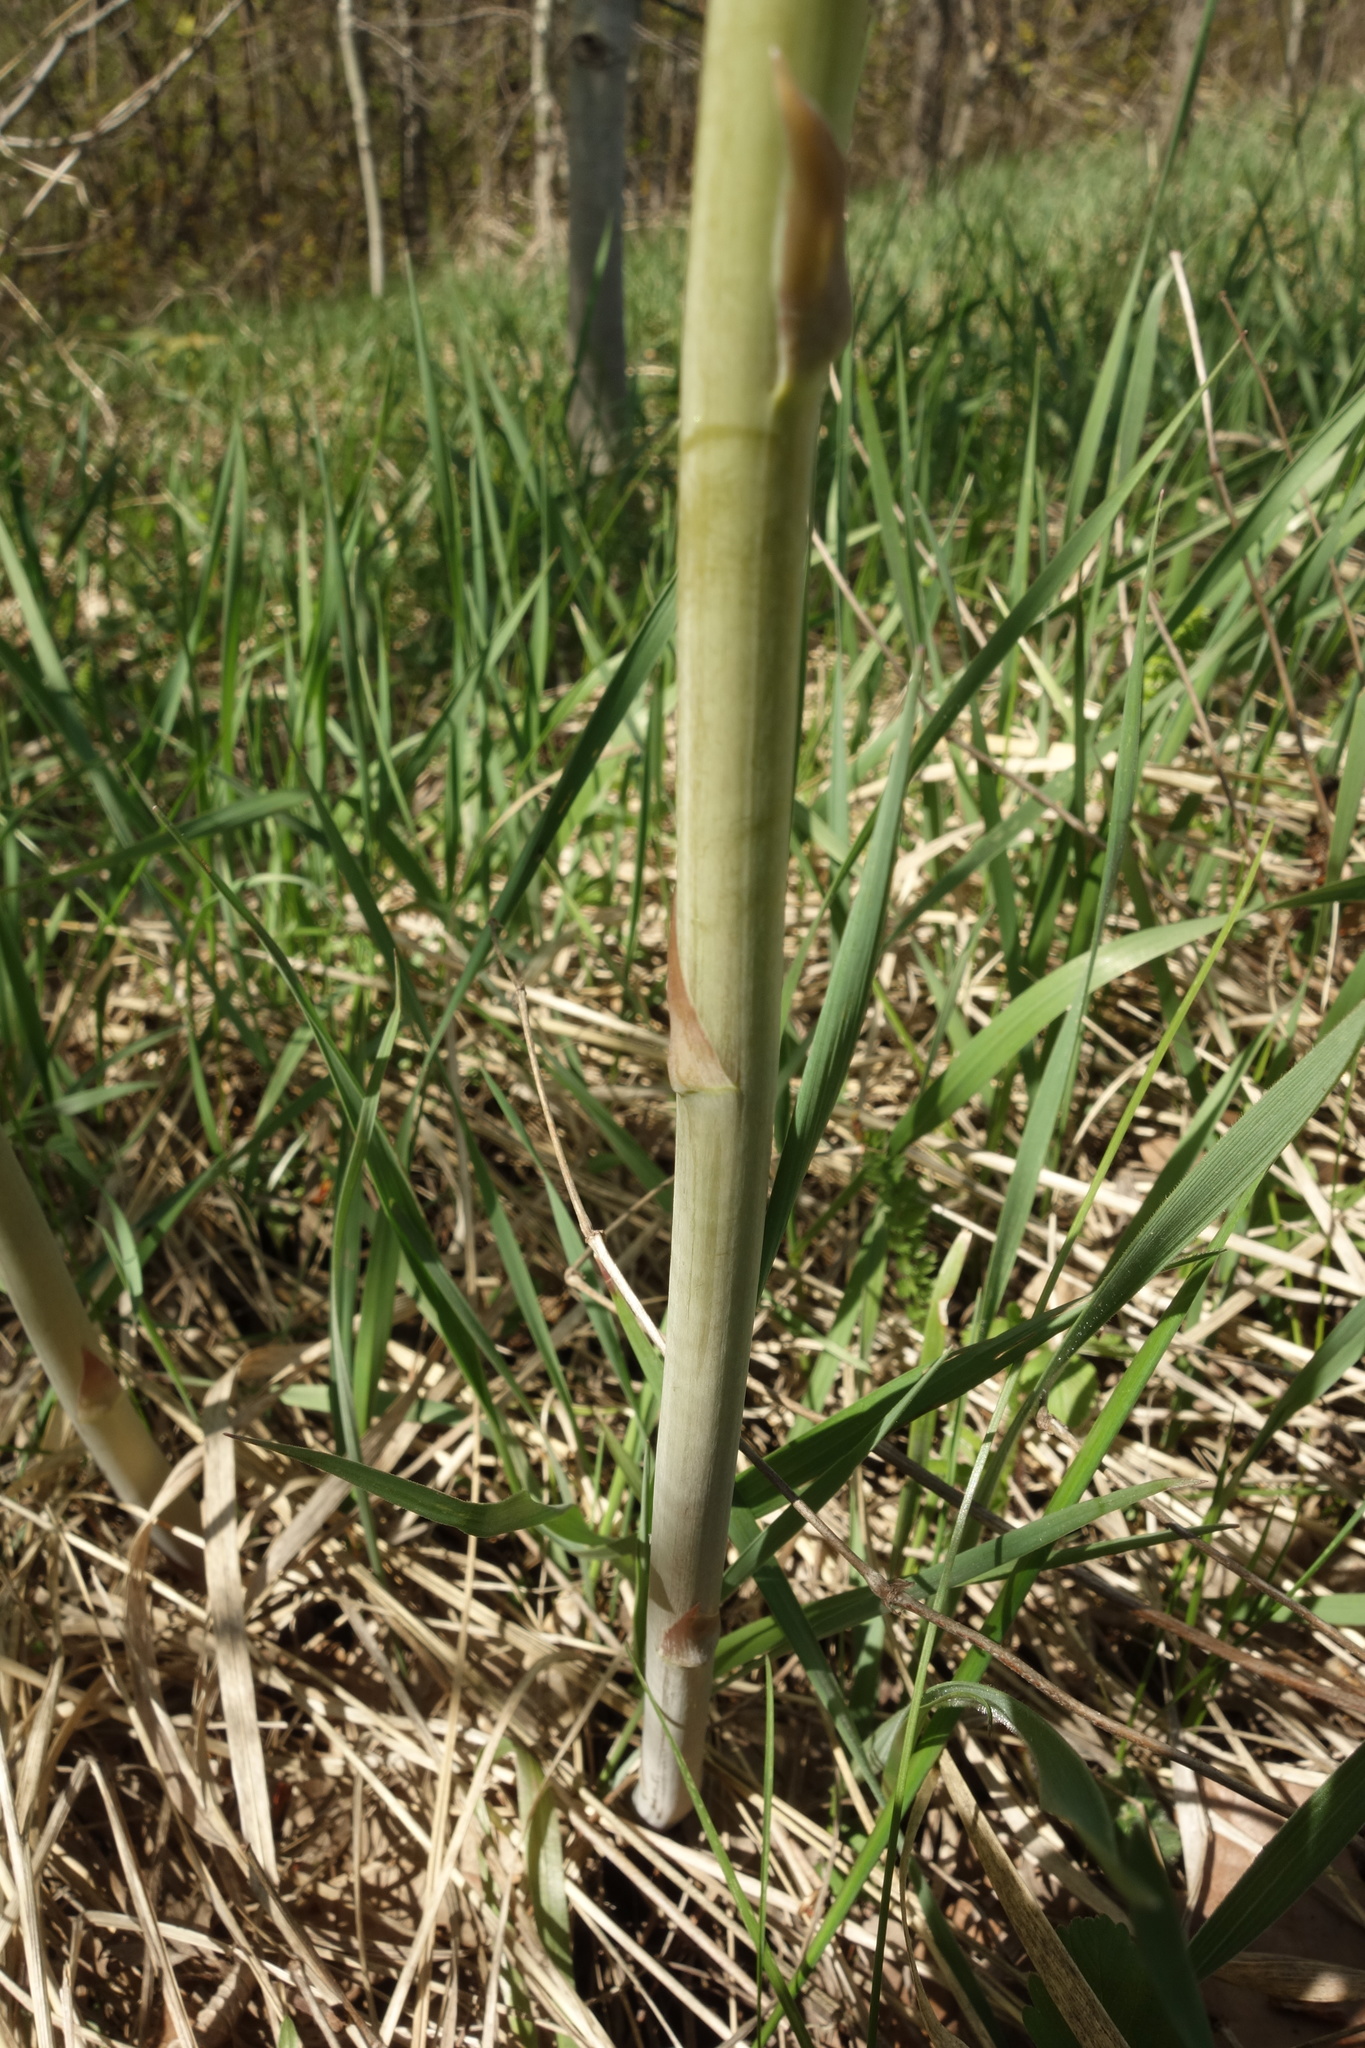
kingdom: Plantae
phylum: Tracheophyta
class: Liliopsida
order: Asparagales
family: Asparagaceae
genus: Asparagus
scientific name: Asparagus officinalis
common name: Garden asparagus
